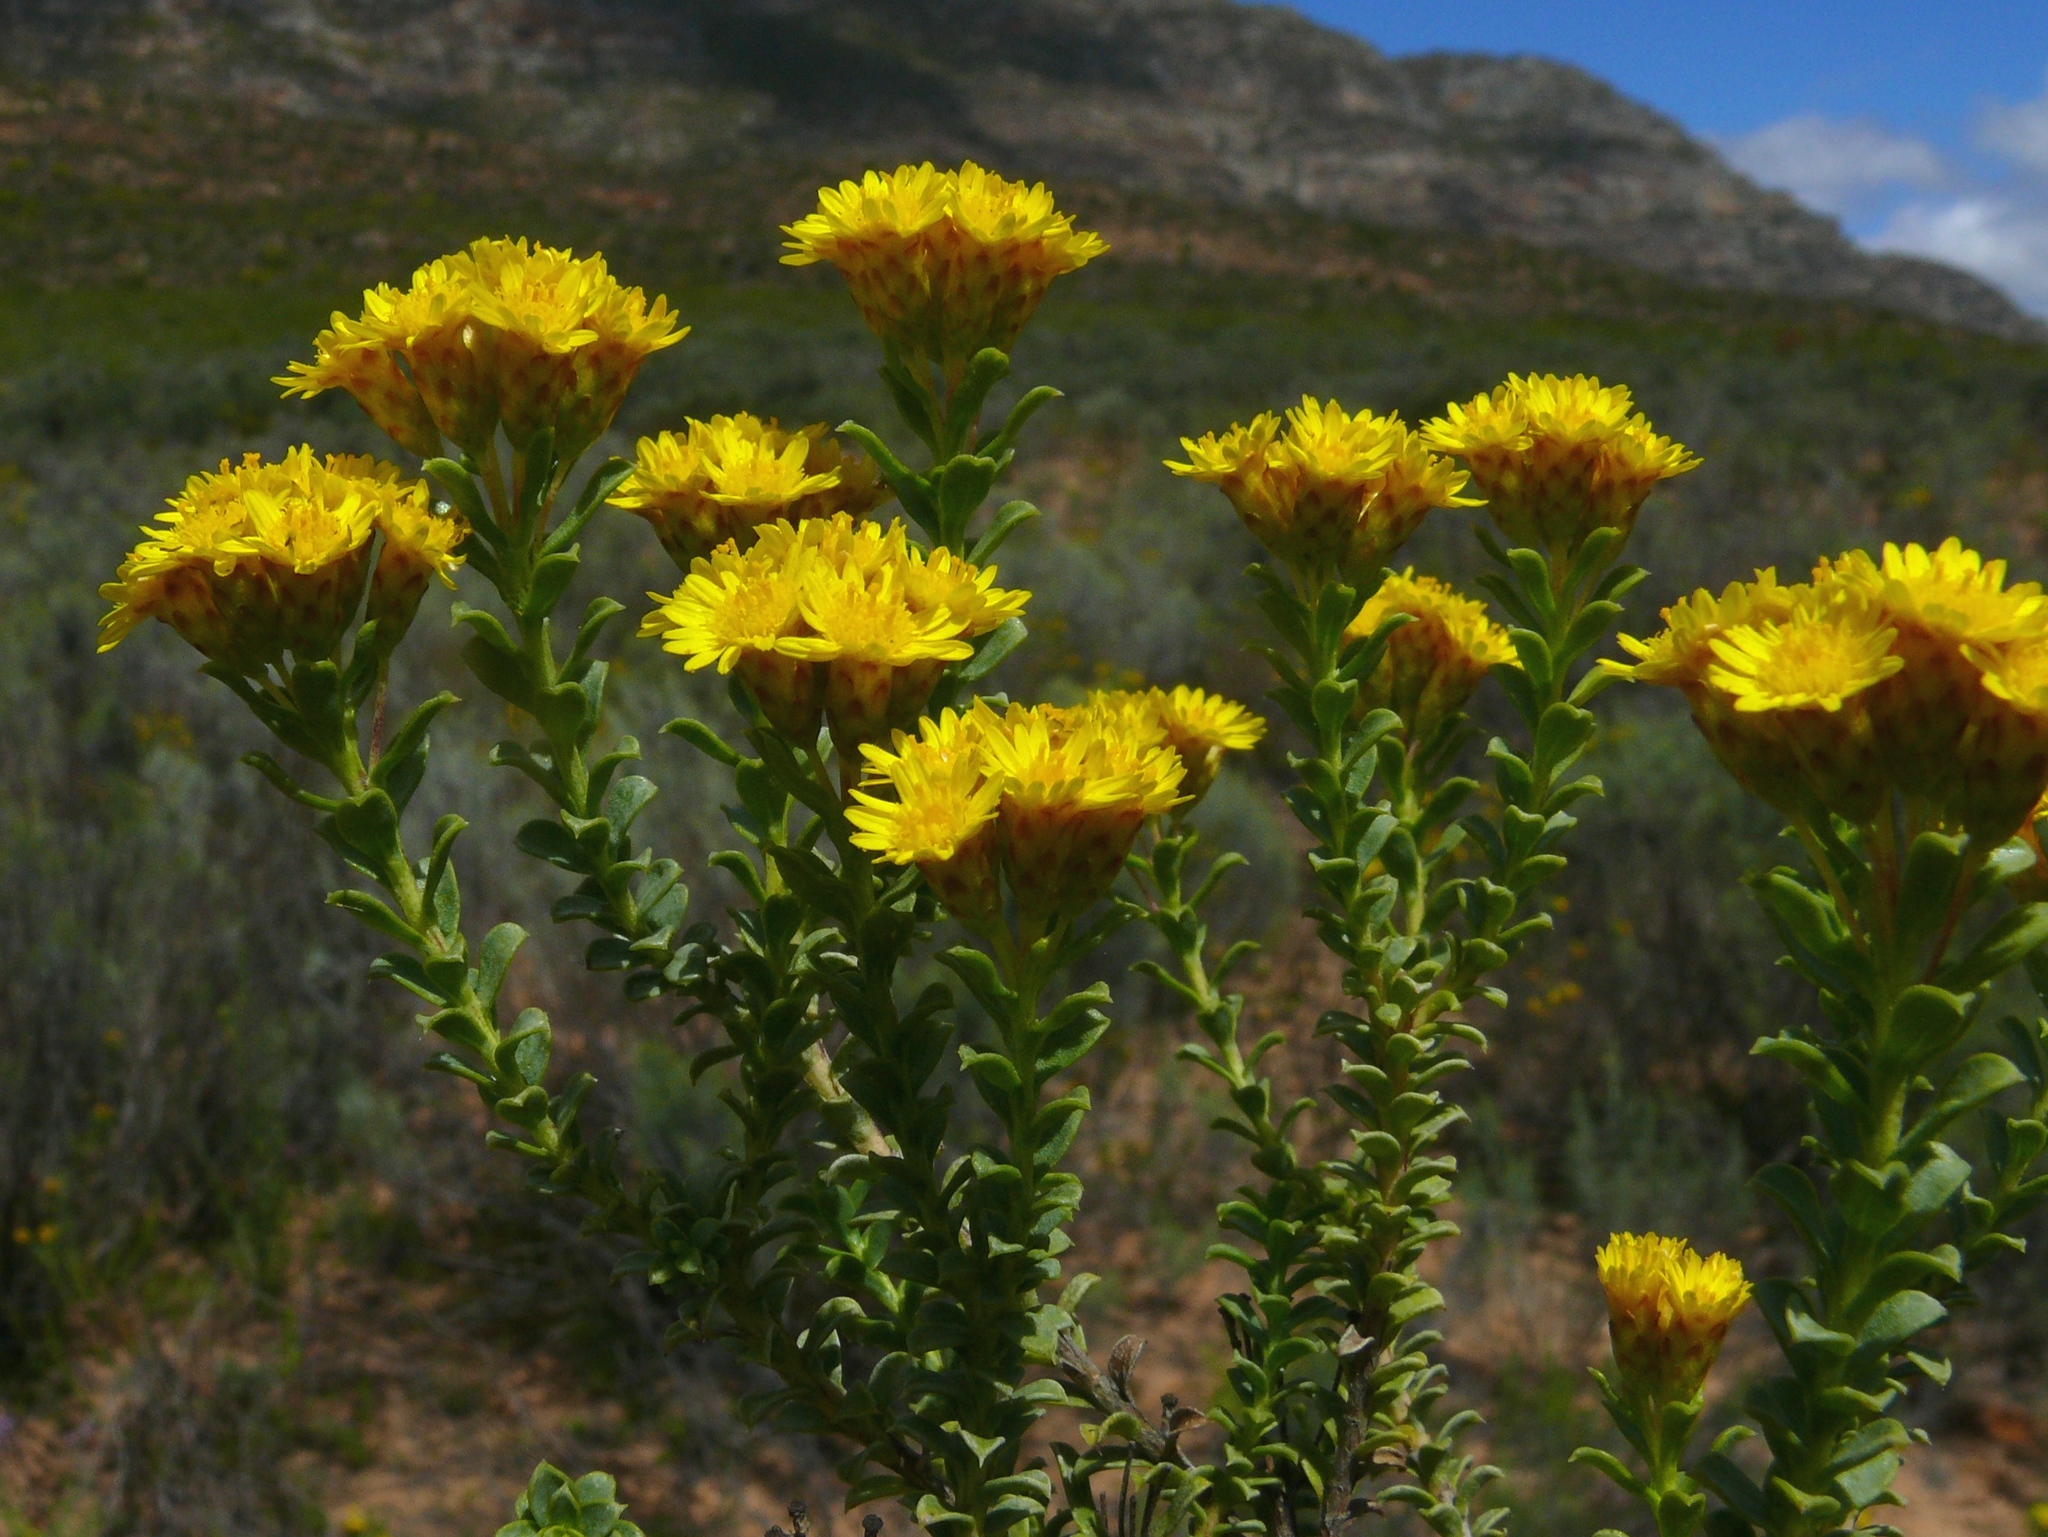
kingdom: Plantae
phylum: Tracheophyta
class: Magnoliopsida
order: Asterales
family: Asteraceae
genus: Oedera
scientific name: Oedera squarrosa
